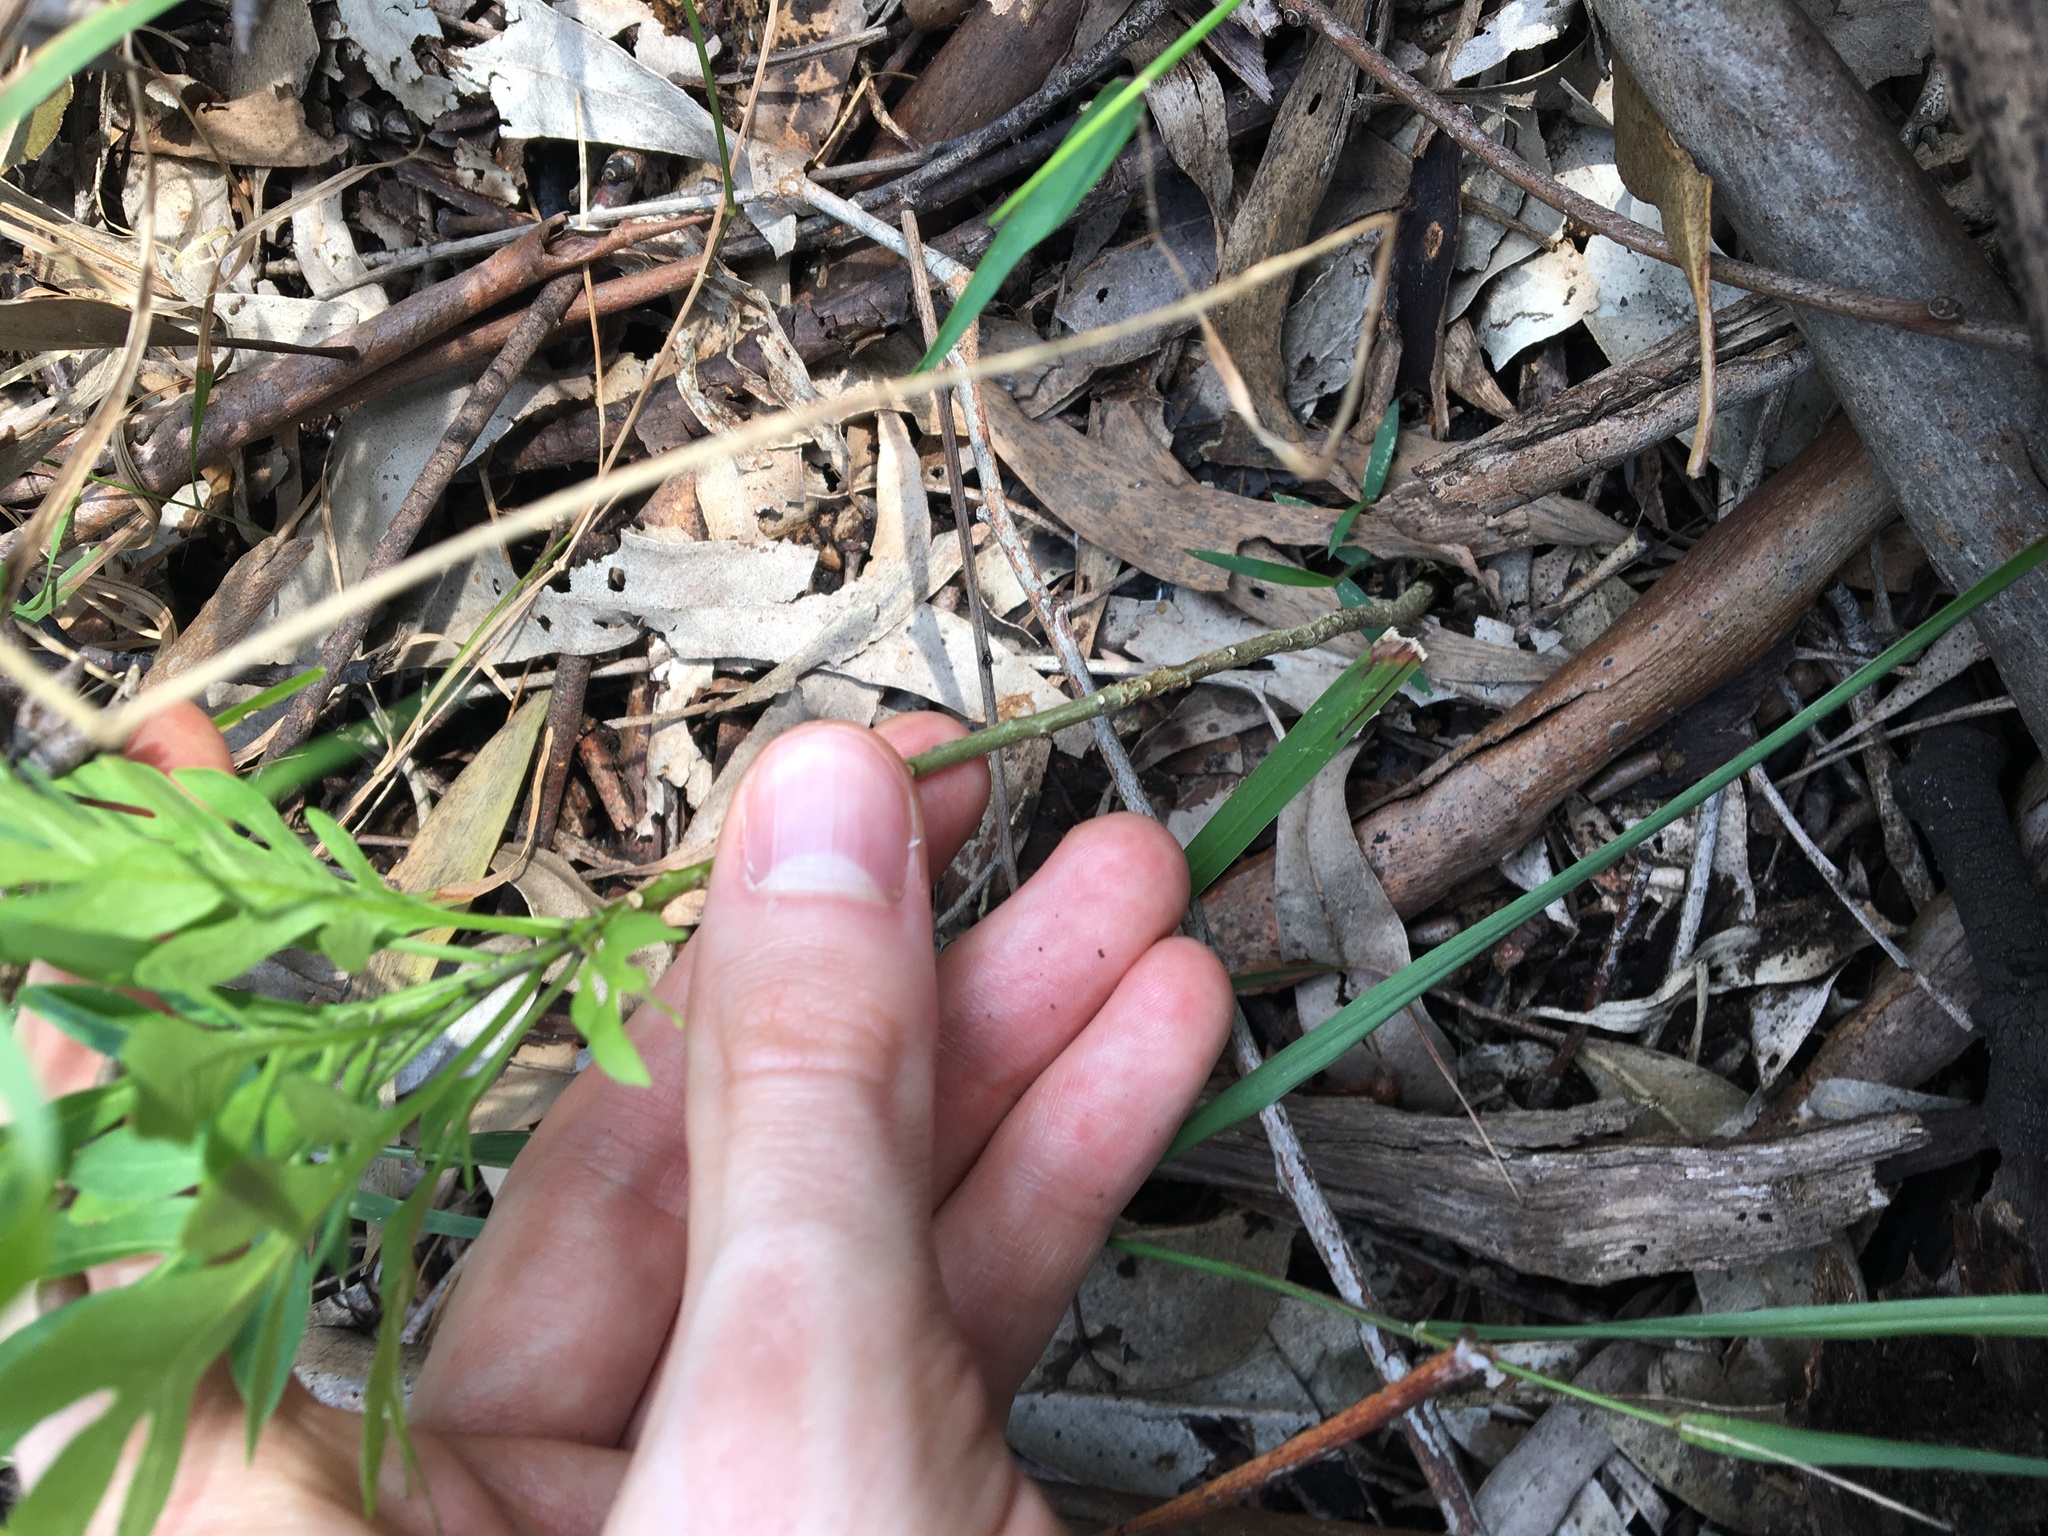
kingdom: Plantae
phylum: Tracheophyta
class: Magnoliopsida
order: Solanales
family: Solanaceae
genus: Solanum
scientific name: Solanum seaforthianum
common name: Brazilian nightshade
